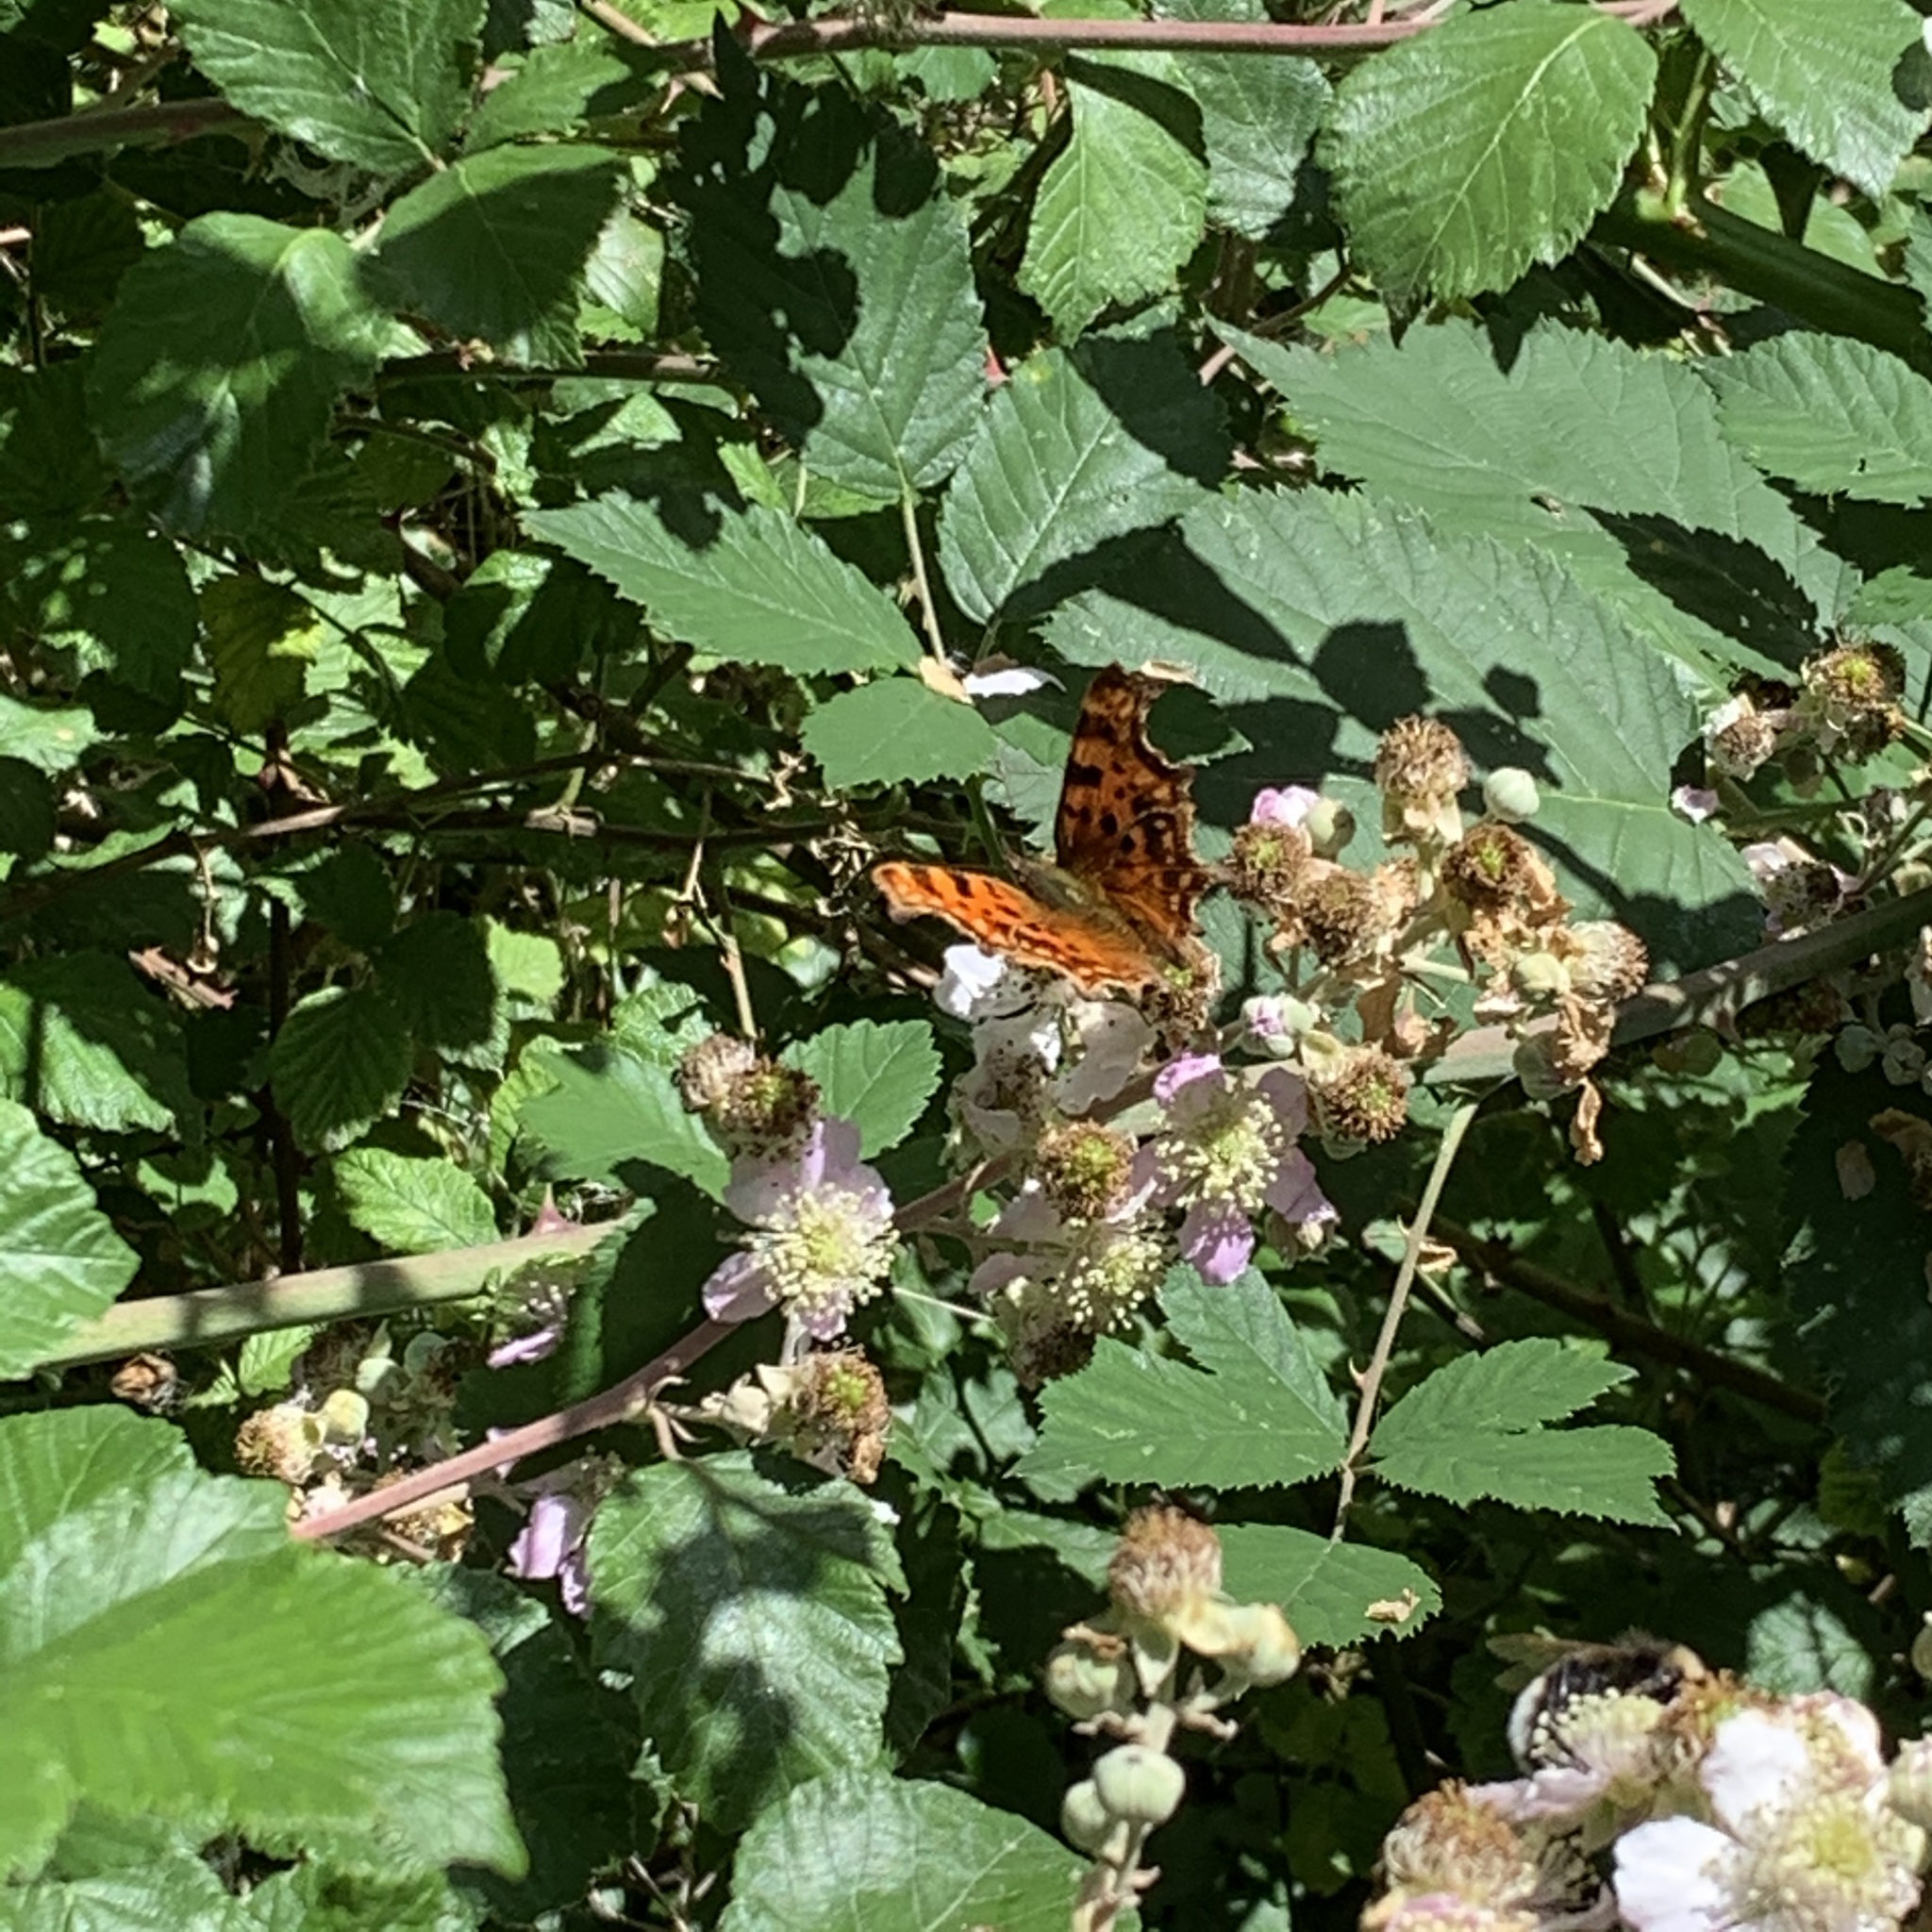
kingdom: Animalia
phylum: Arthropoda
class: Insecta
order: Lepidoptera
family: Nymphalidae
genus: Polygonia
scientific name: Polygonia c-album
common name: Comma
